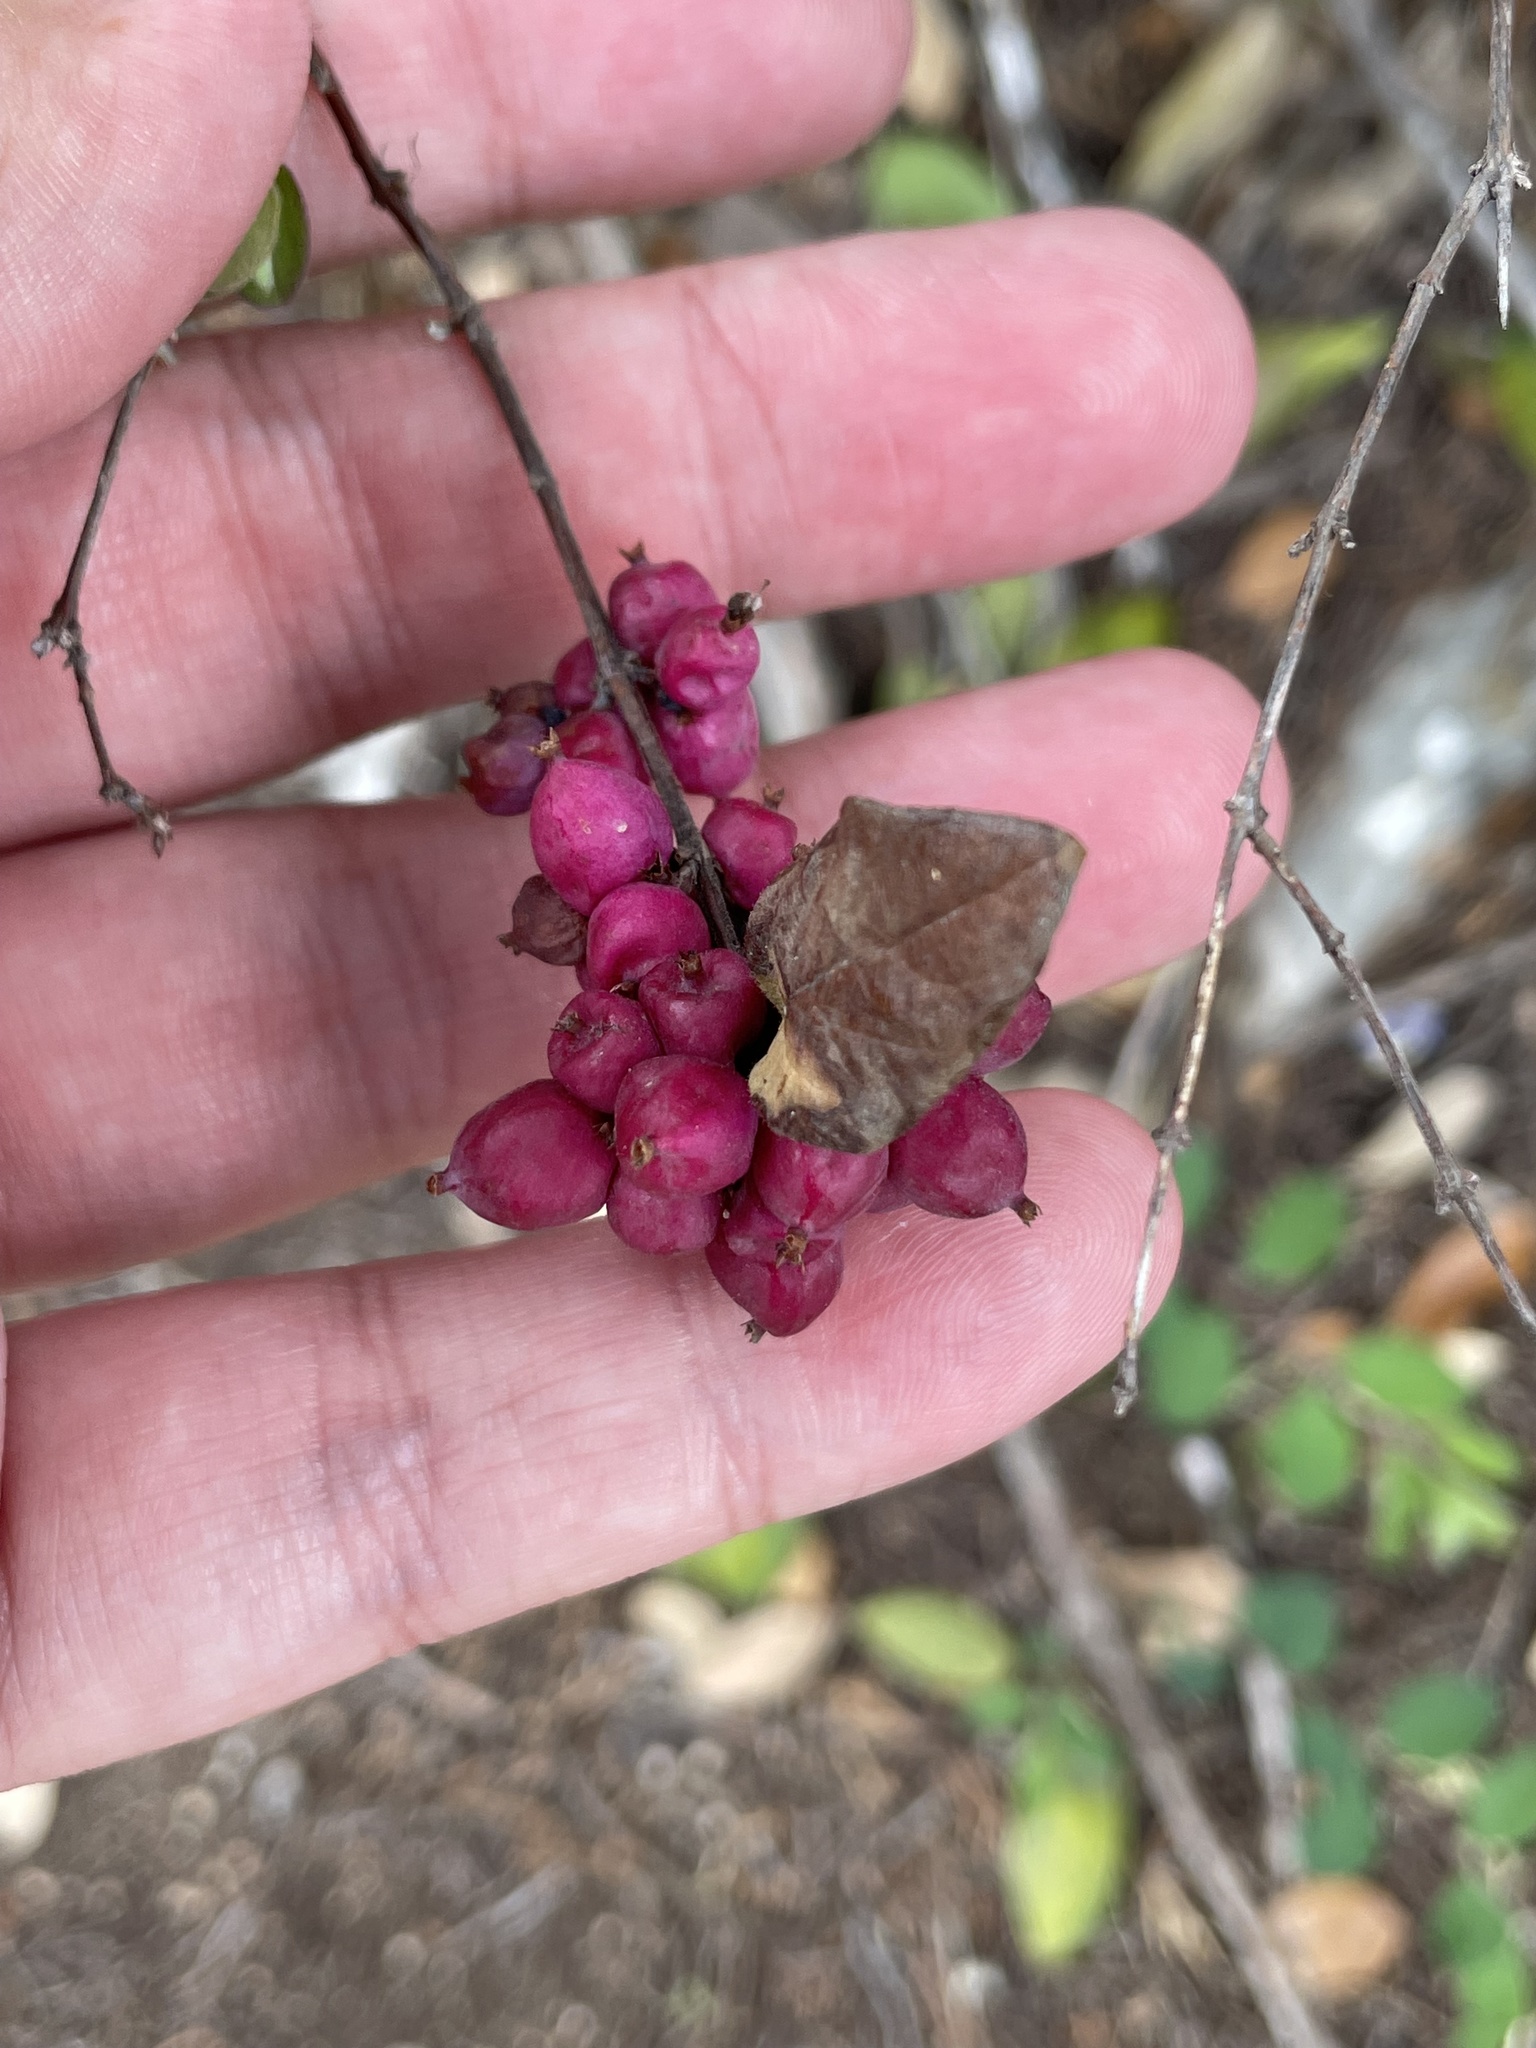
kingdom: Plantae
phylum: Tracheophyta
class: Magnoliopsida
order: Dipsacales
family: Caprifoliaceae
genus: Symphoricarpos
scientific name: Symphoricarpos orbiculatus
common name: Coralberry
